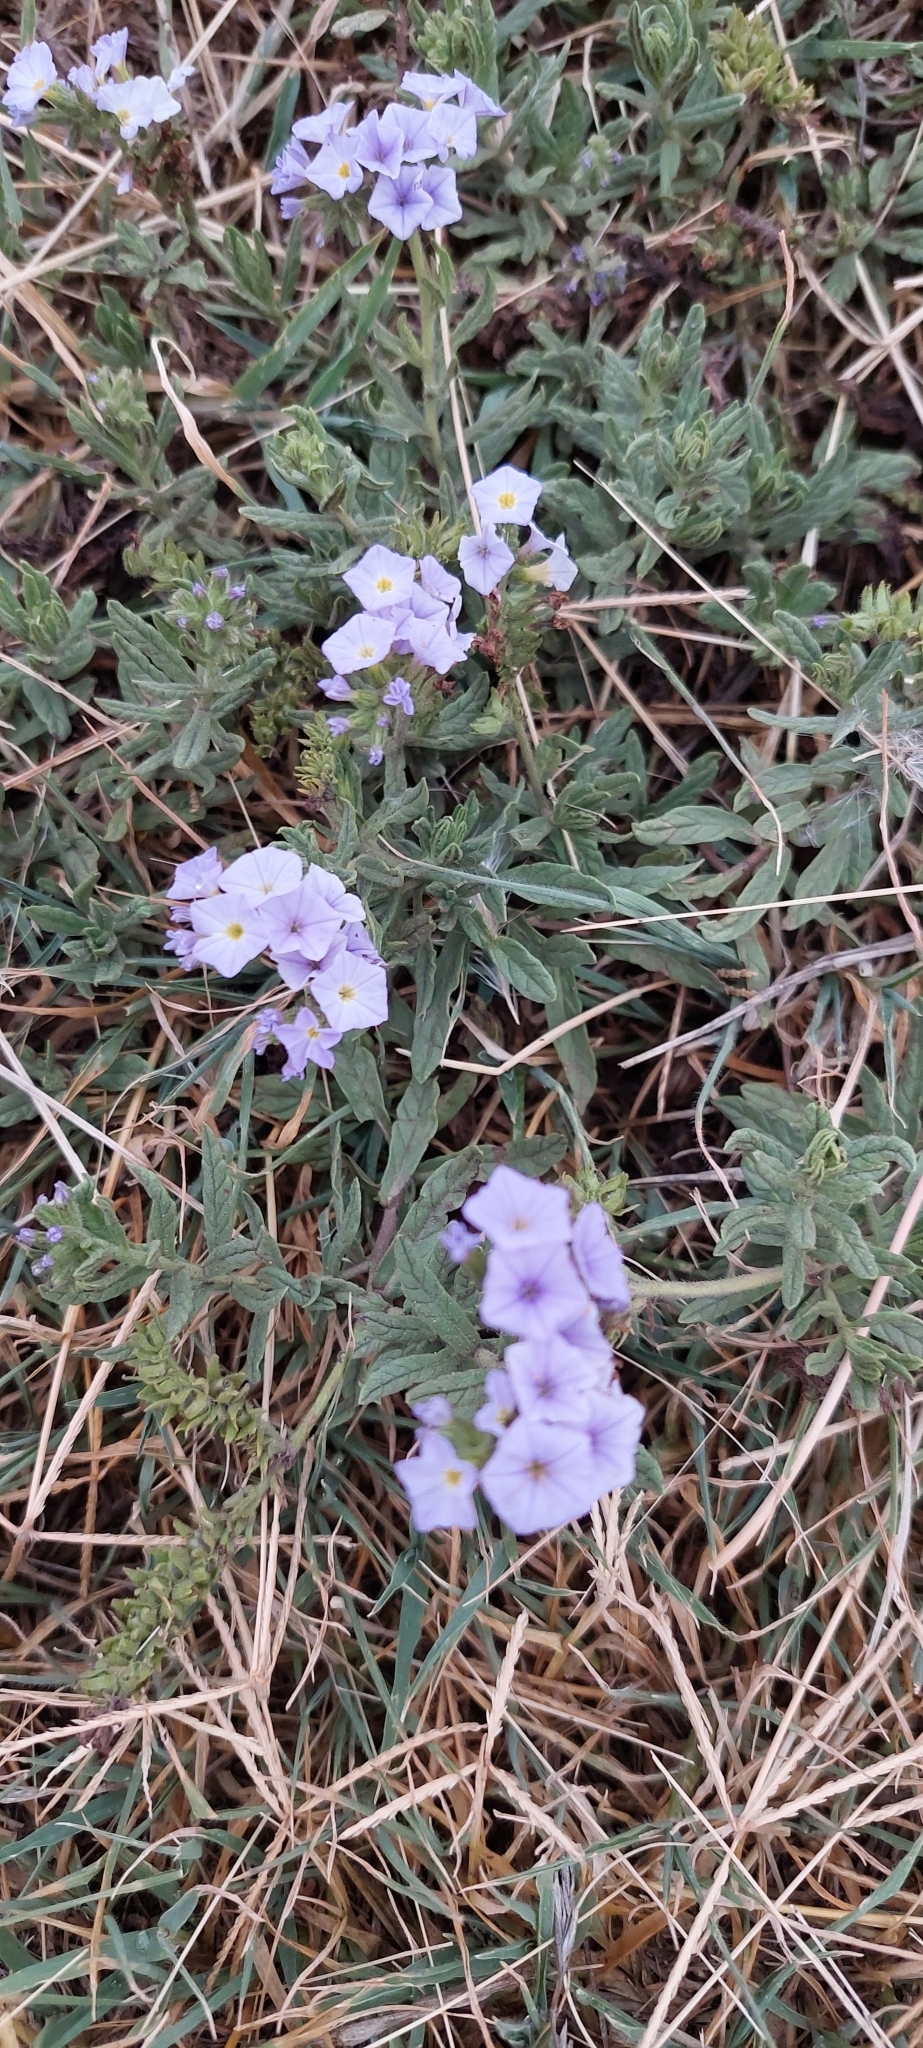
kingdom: Plantae
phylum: Tracheophyta
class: Magnoliopsida
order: Boraginales
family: Heliotropiaceae
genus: Heliotropium
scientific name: Heliotropium amplexicaule
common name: Clasping heliotrope
